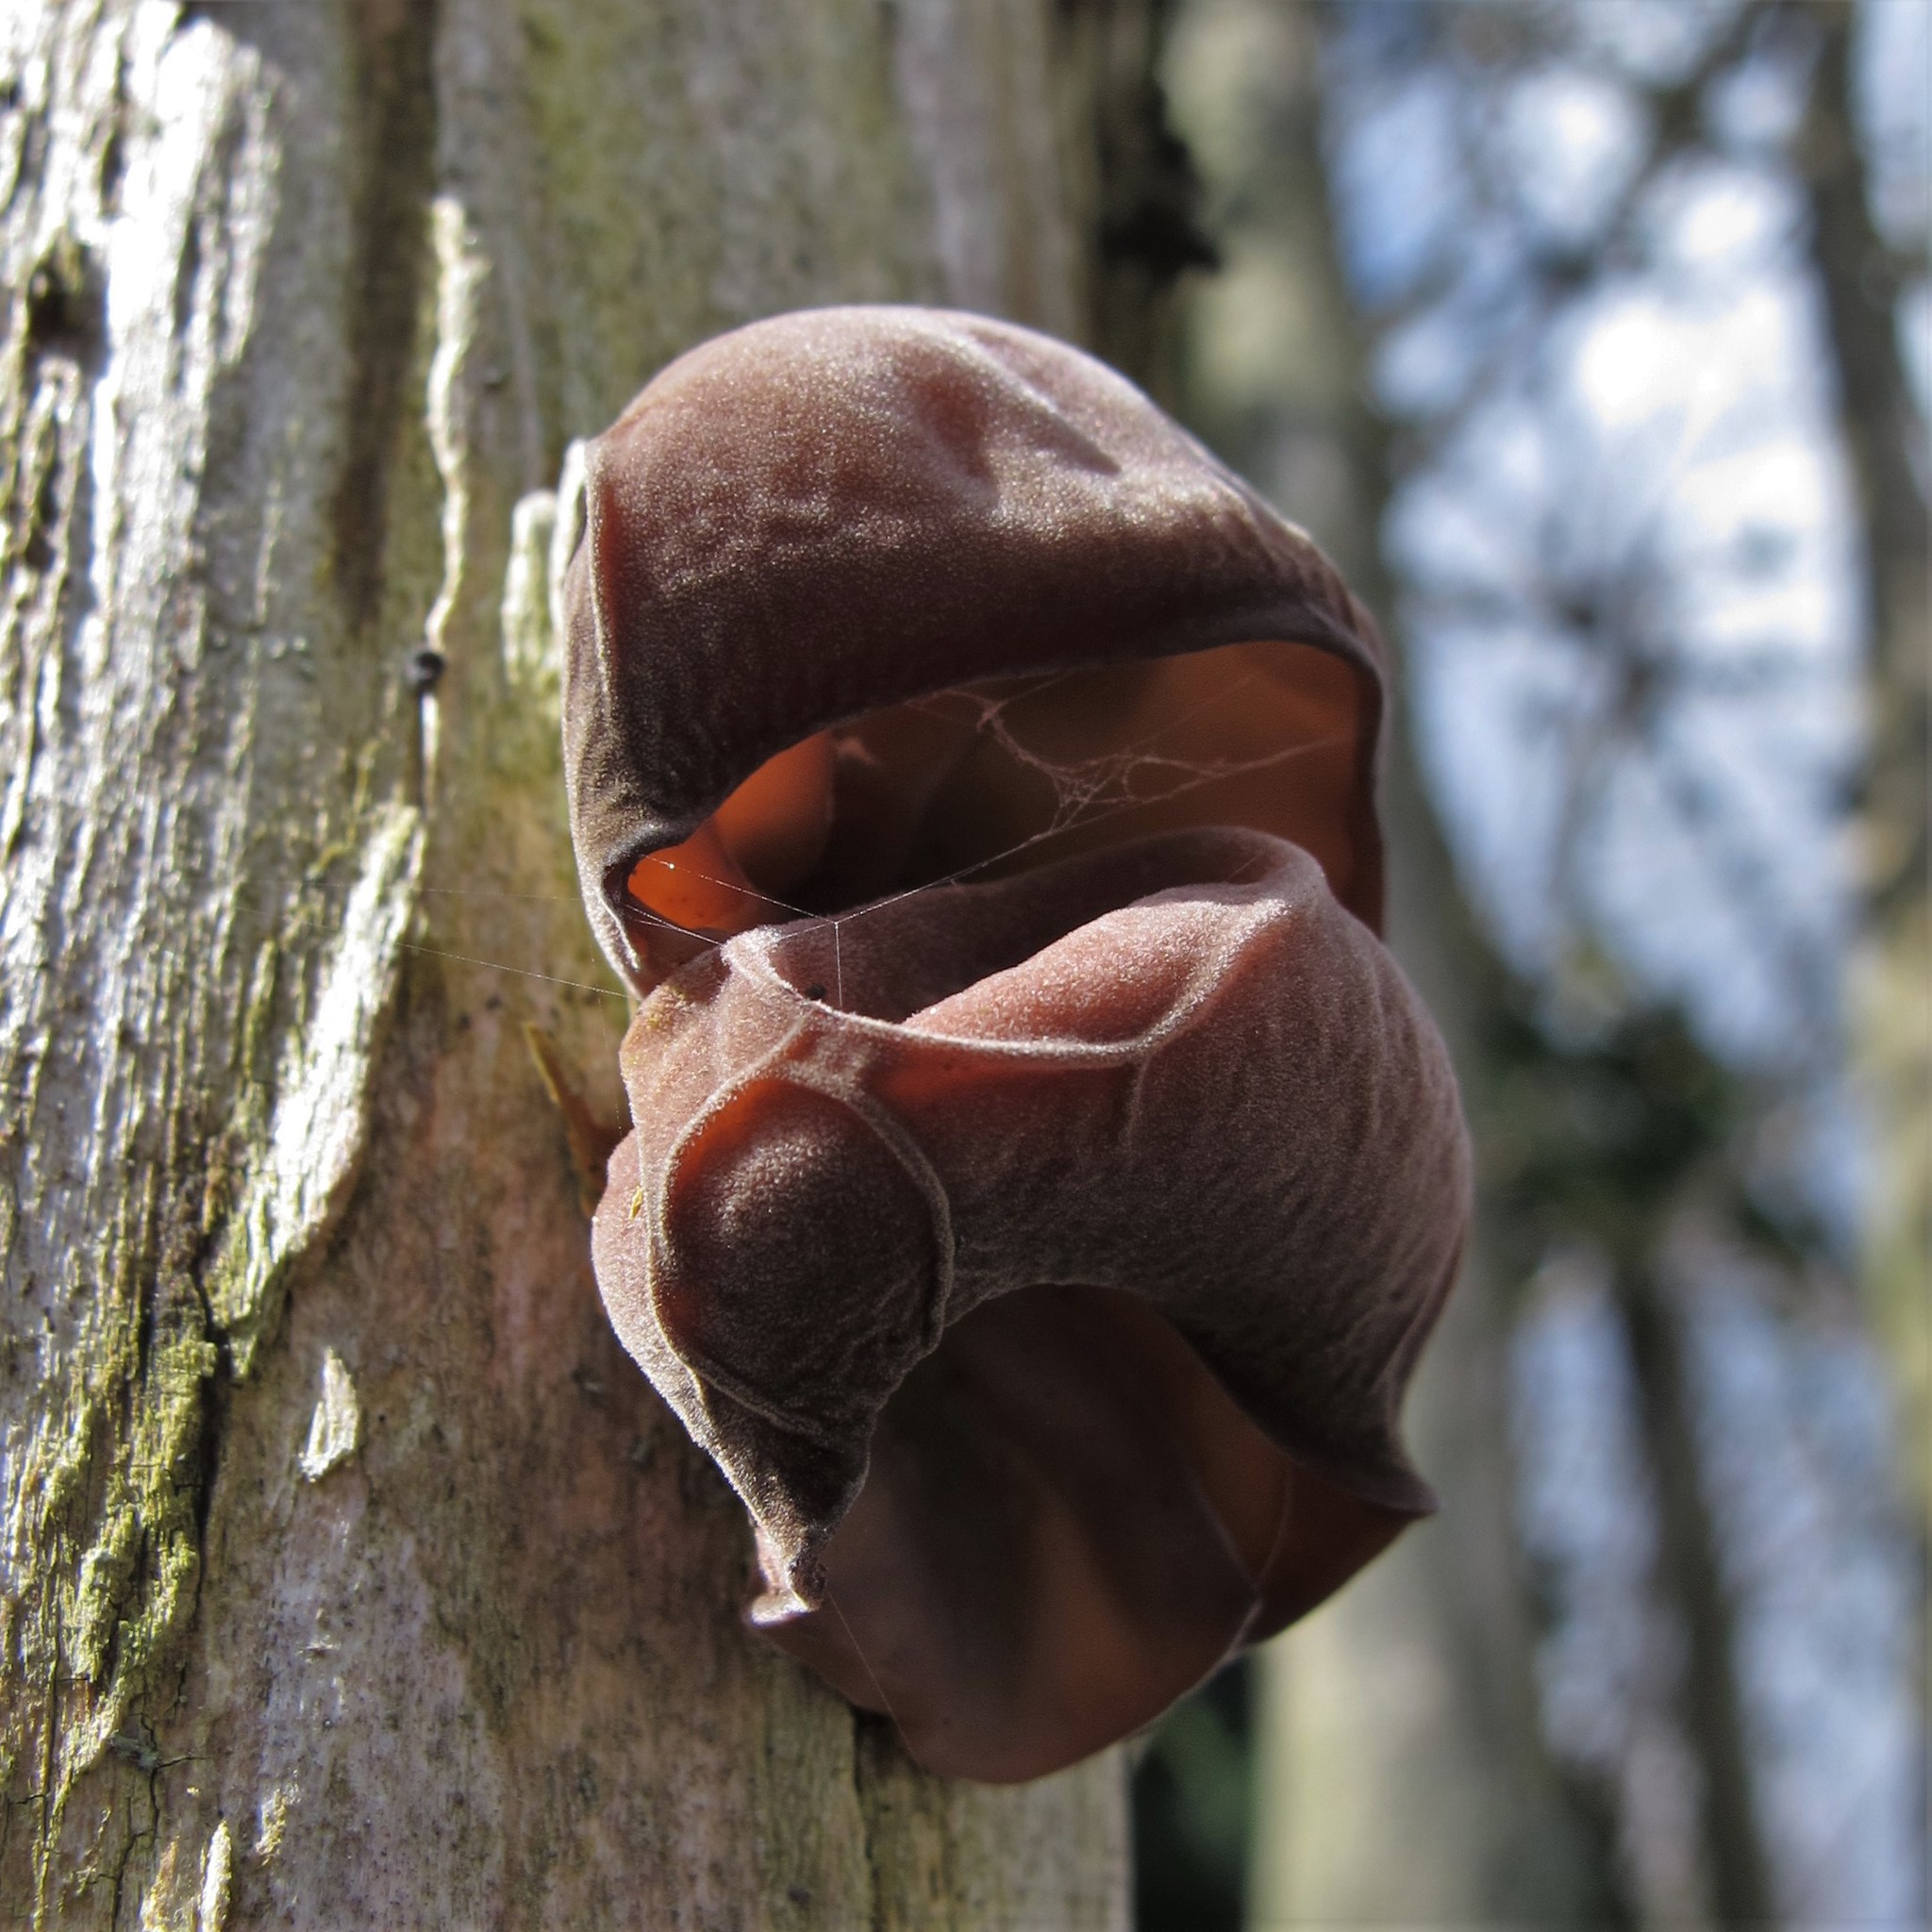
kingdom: Fungi
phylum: Basidiomycota
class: Agaricomycetes
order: Auriculariales
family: Auriculariaceae
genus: Auricularia
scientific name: Auricularia auricula-judae
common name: Jelly ear
